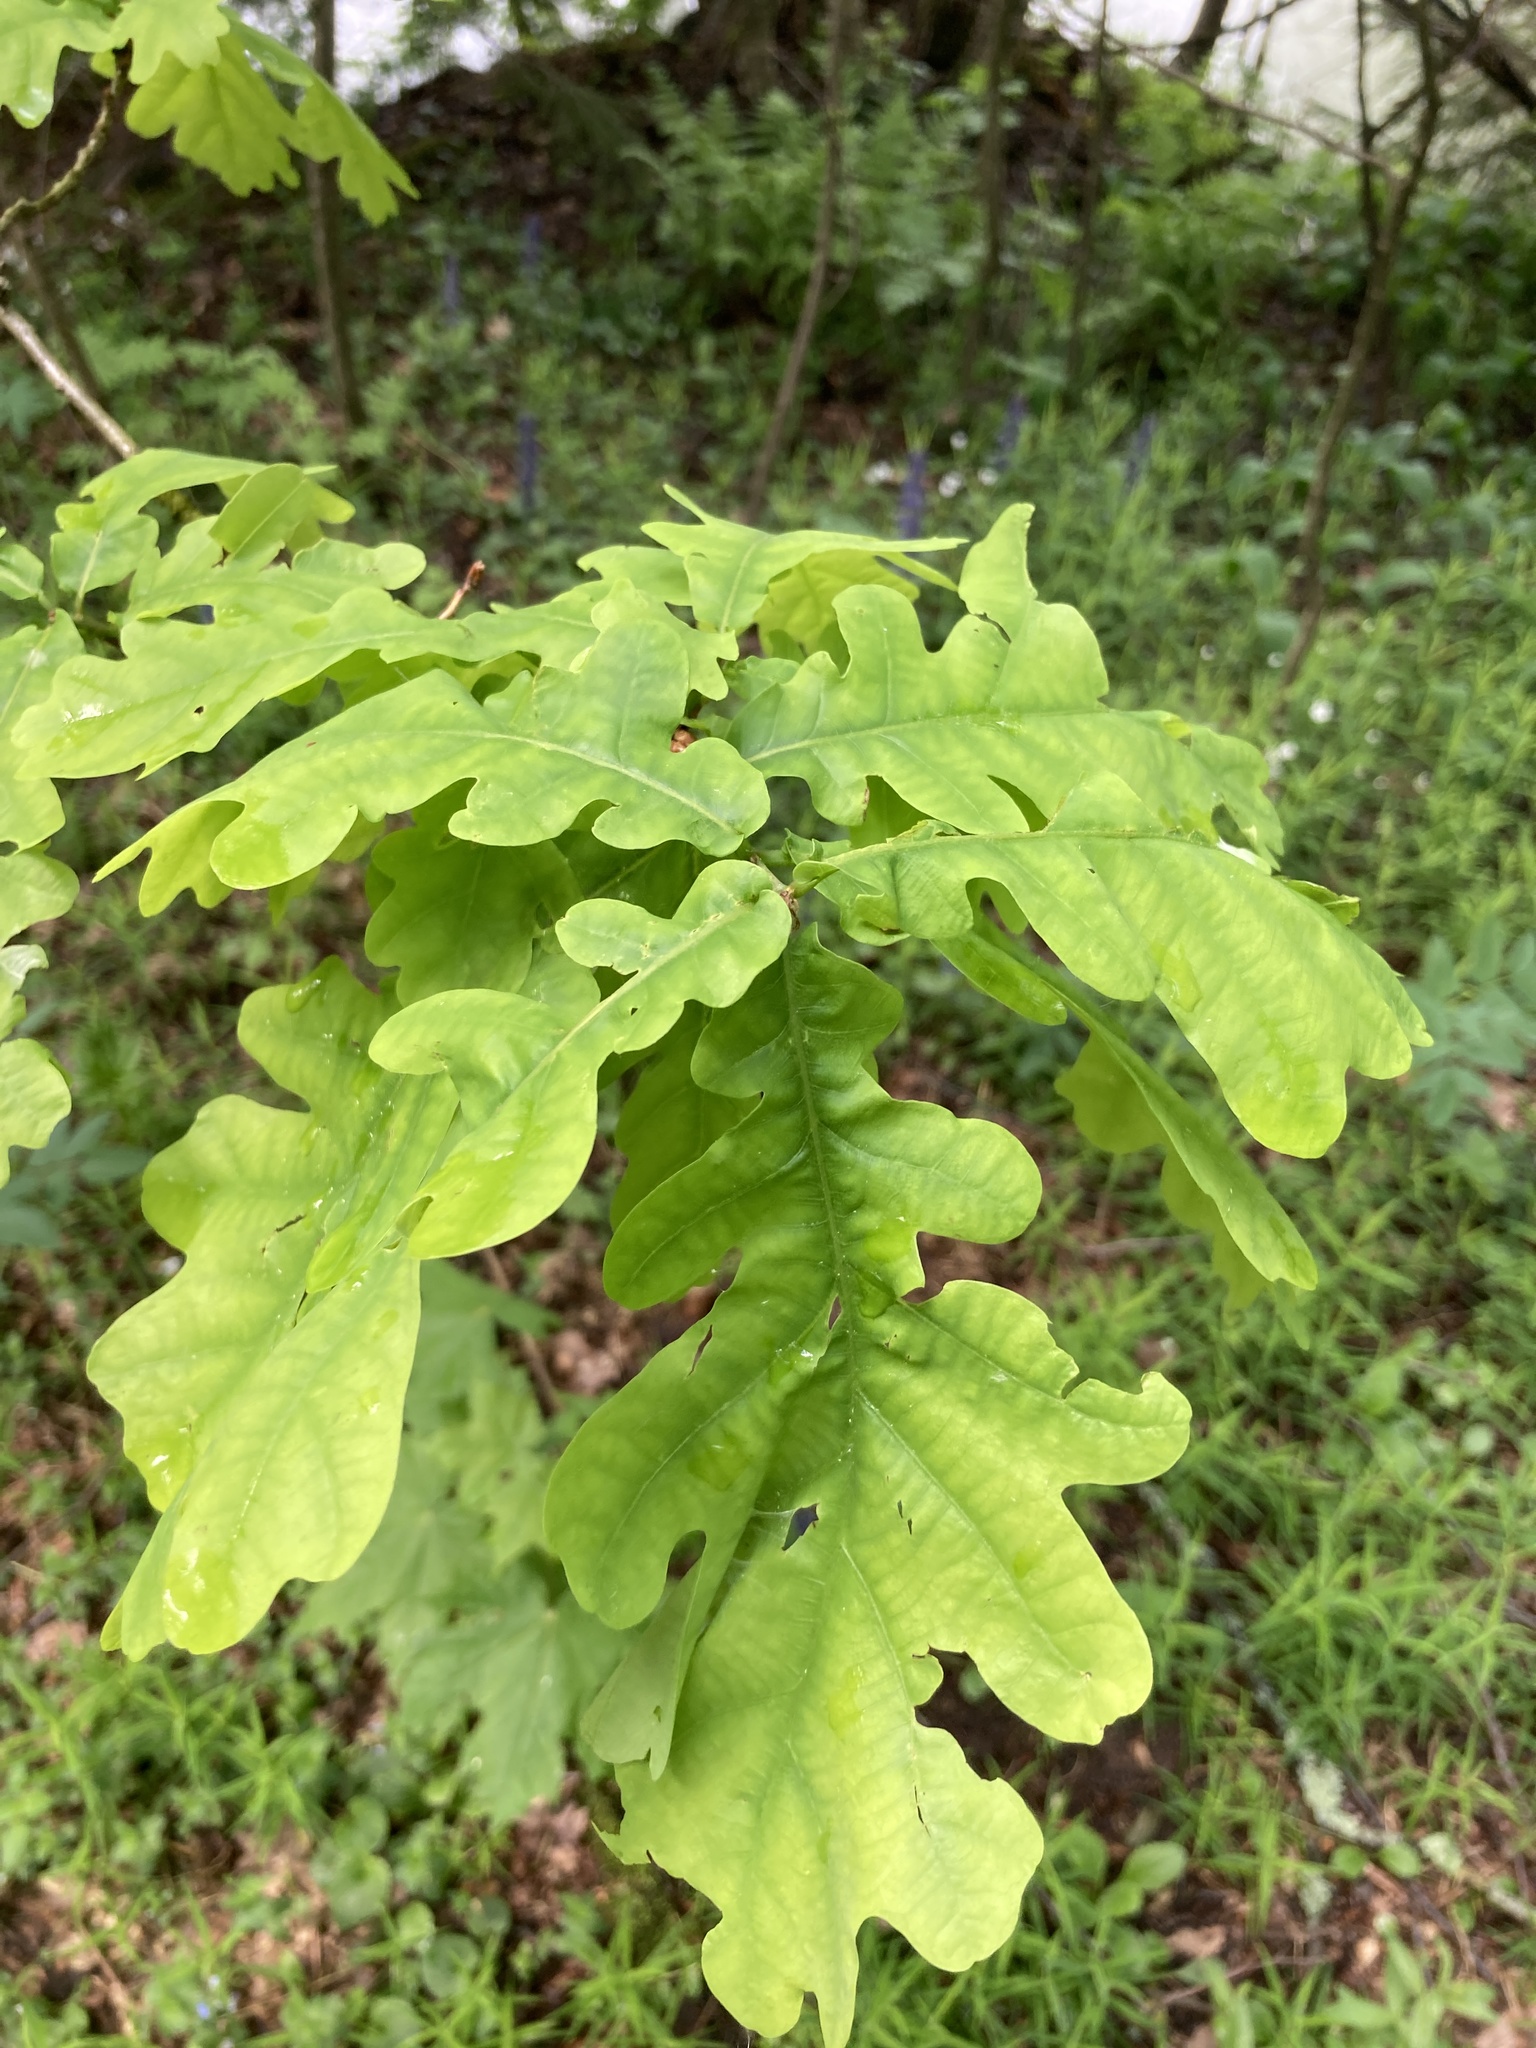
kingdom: Plantae
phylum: Tracheophyta
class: Magnoliopsida
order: Fagales
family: Fagaceae
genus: Quercus
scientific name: Quercus robur
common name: Pedunculate oak
